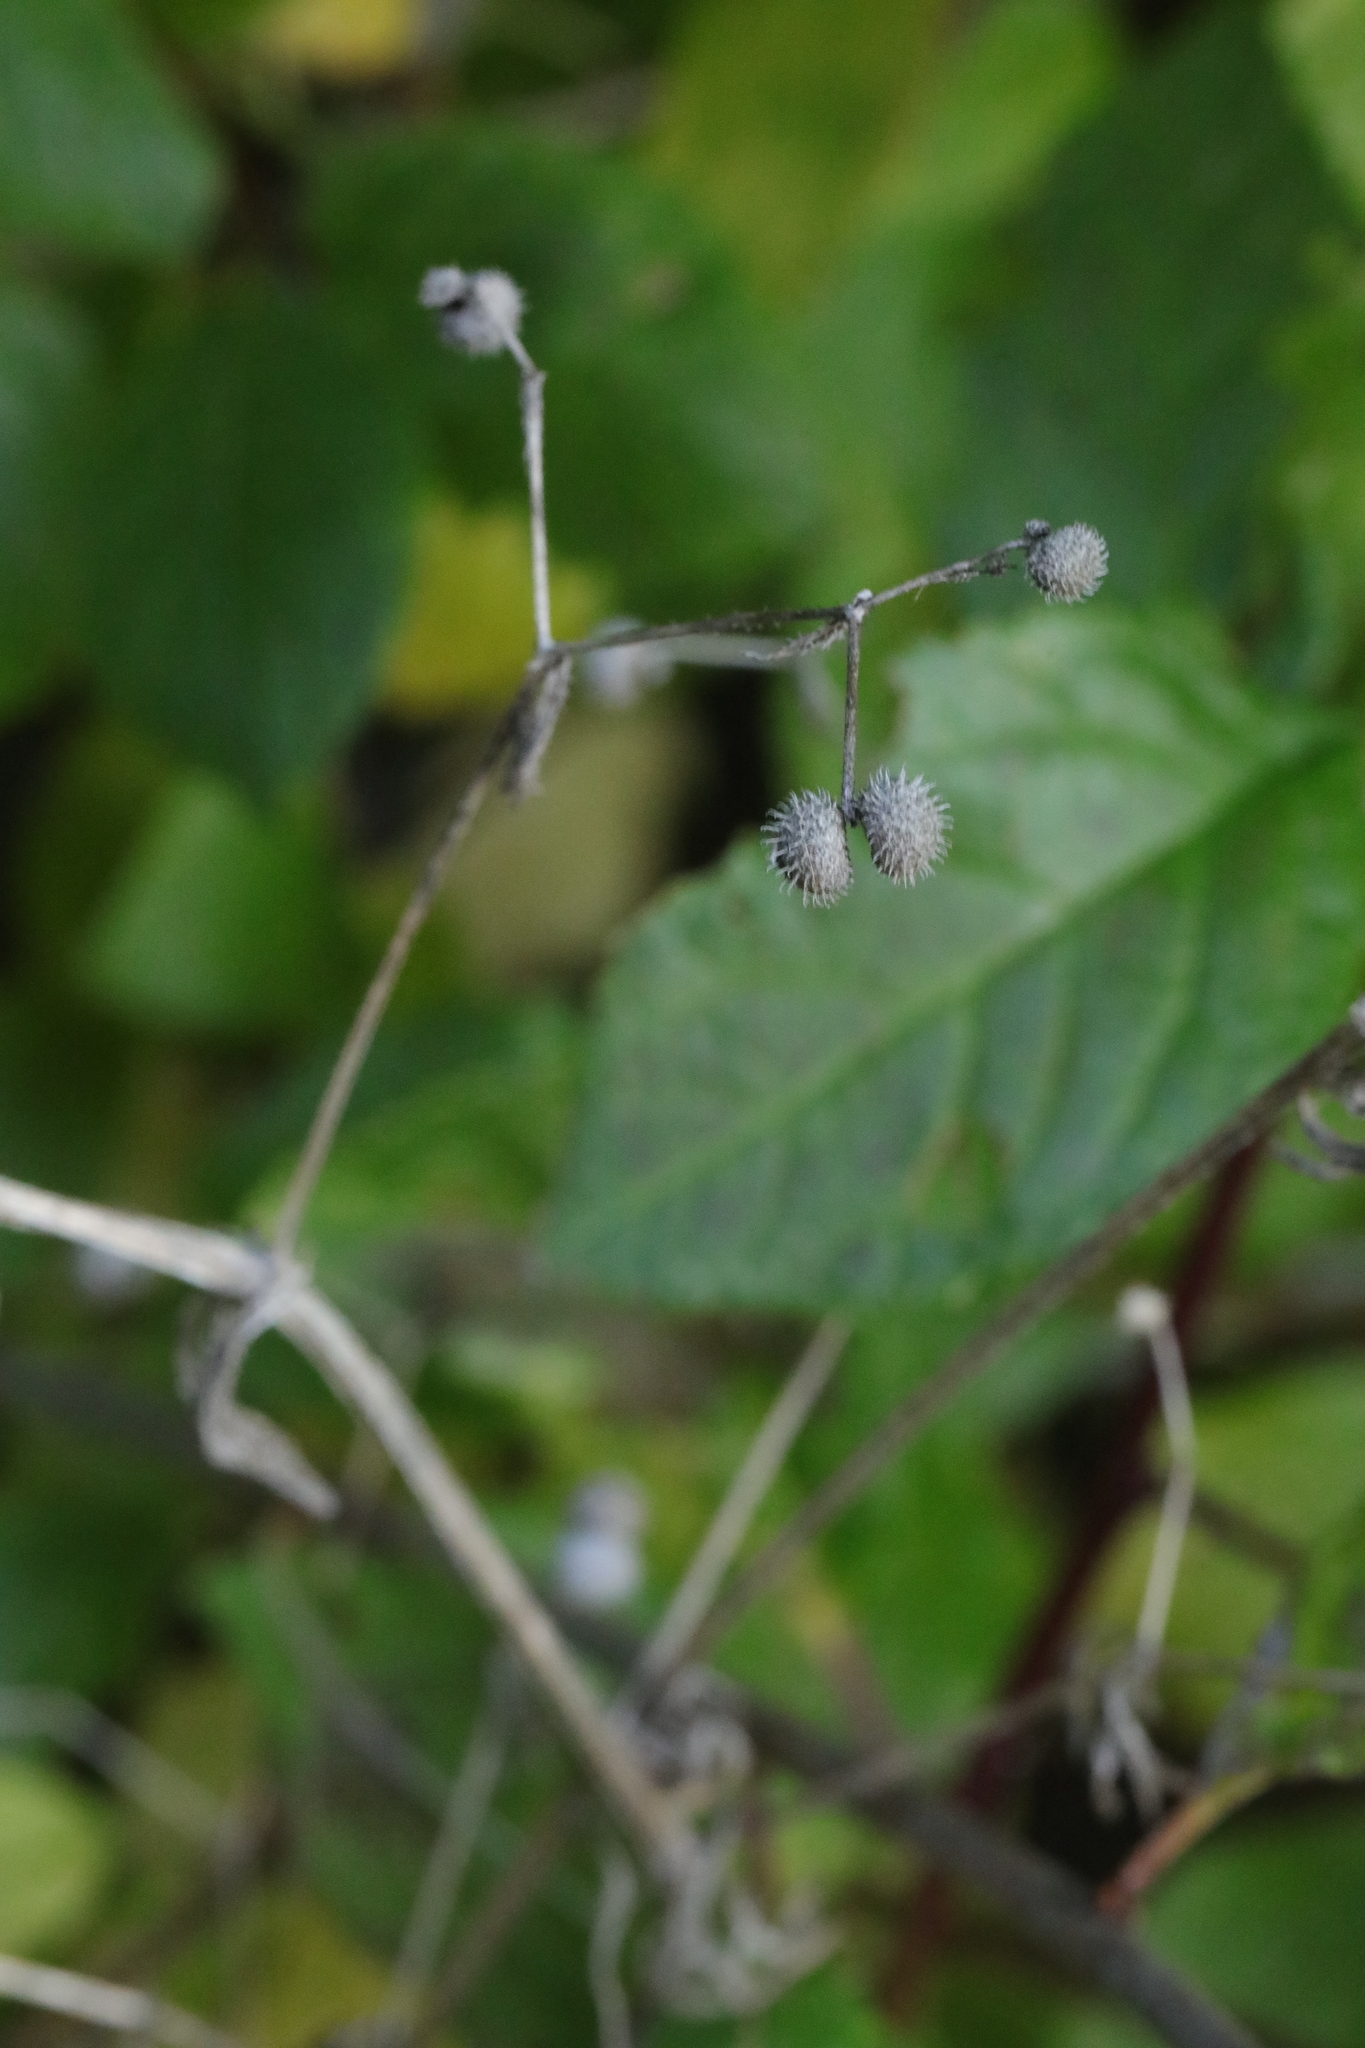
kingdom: Plantae
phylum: Tracheophyta
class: Magnoliopsida
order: Gentianales
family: Rubiaceae
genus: Galium
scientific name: Galium aparine
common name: Cleavers
